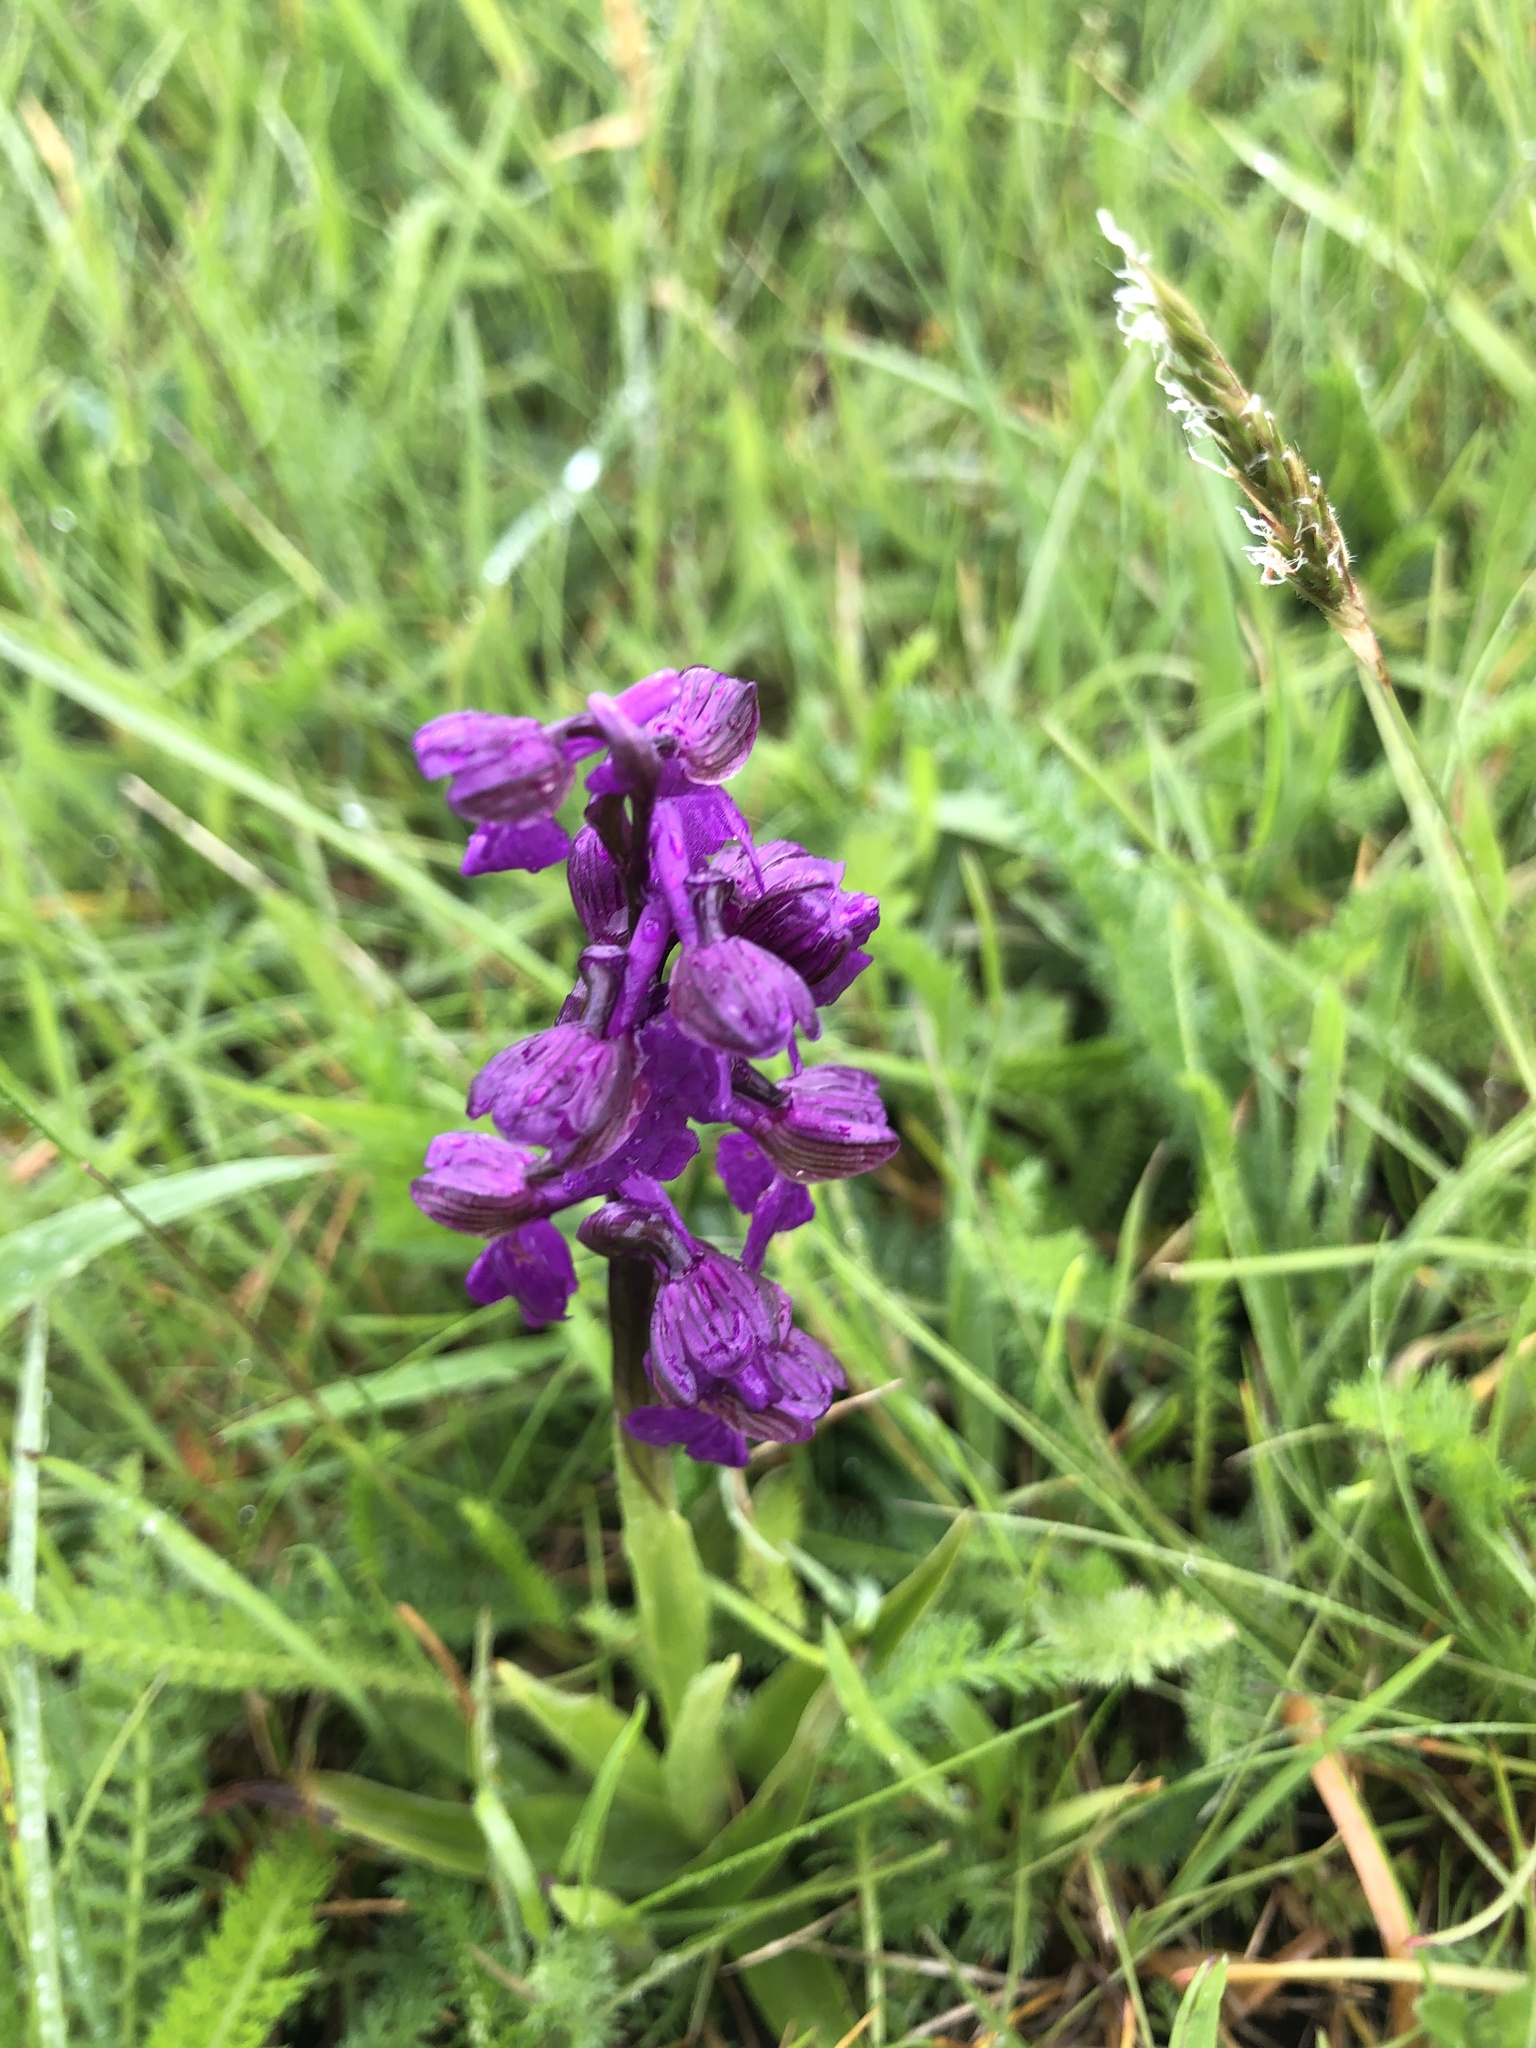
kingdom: Plantae
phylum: Tracheophyta
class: Liliopsida
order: Asparagales
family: Orchidaceae
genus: Anacamptis
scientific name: Anacamptis morio
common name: Green-winged orchid
